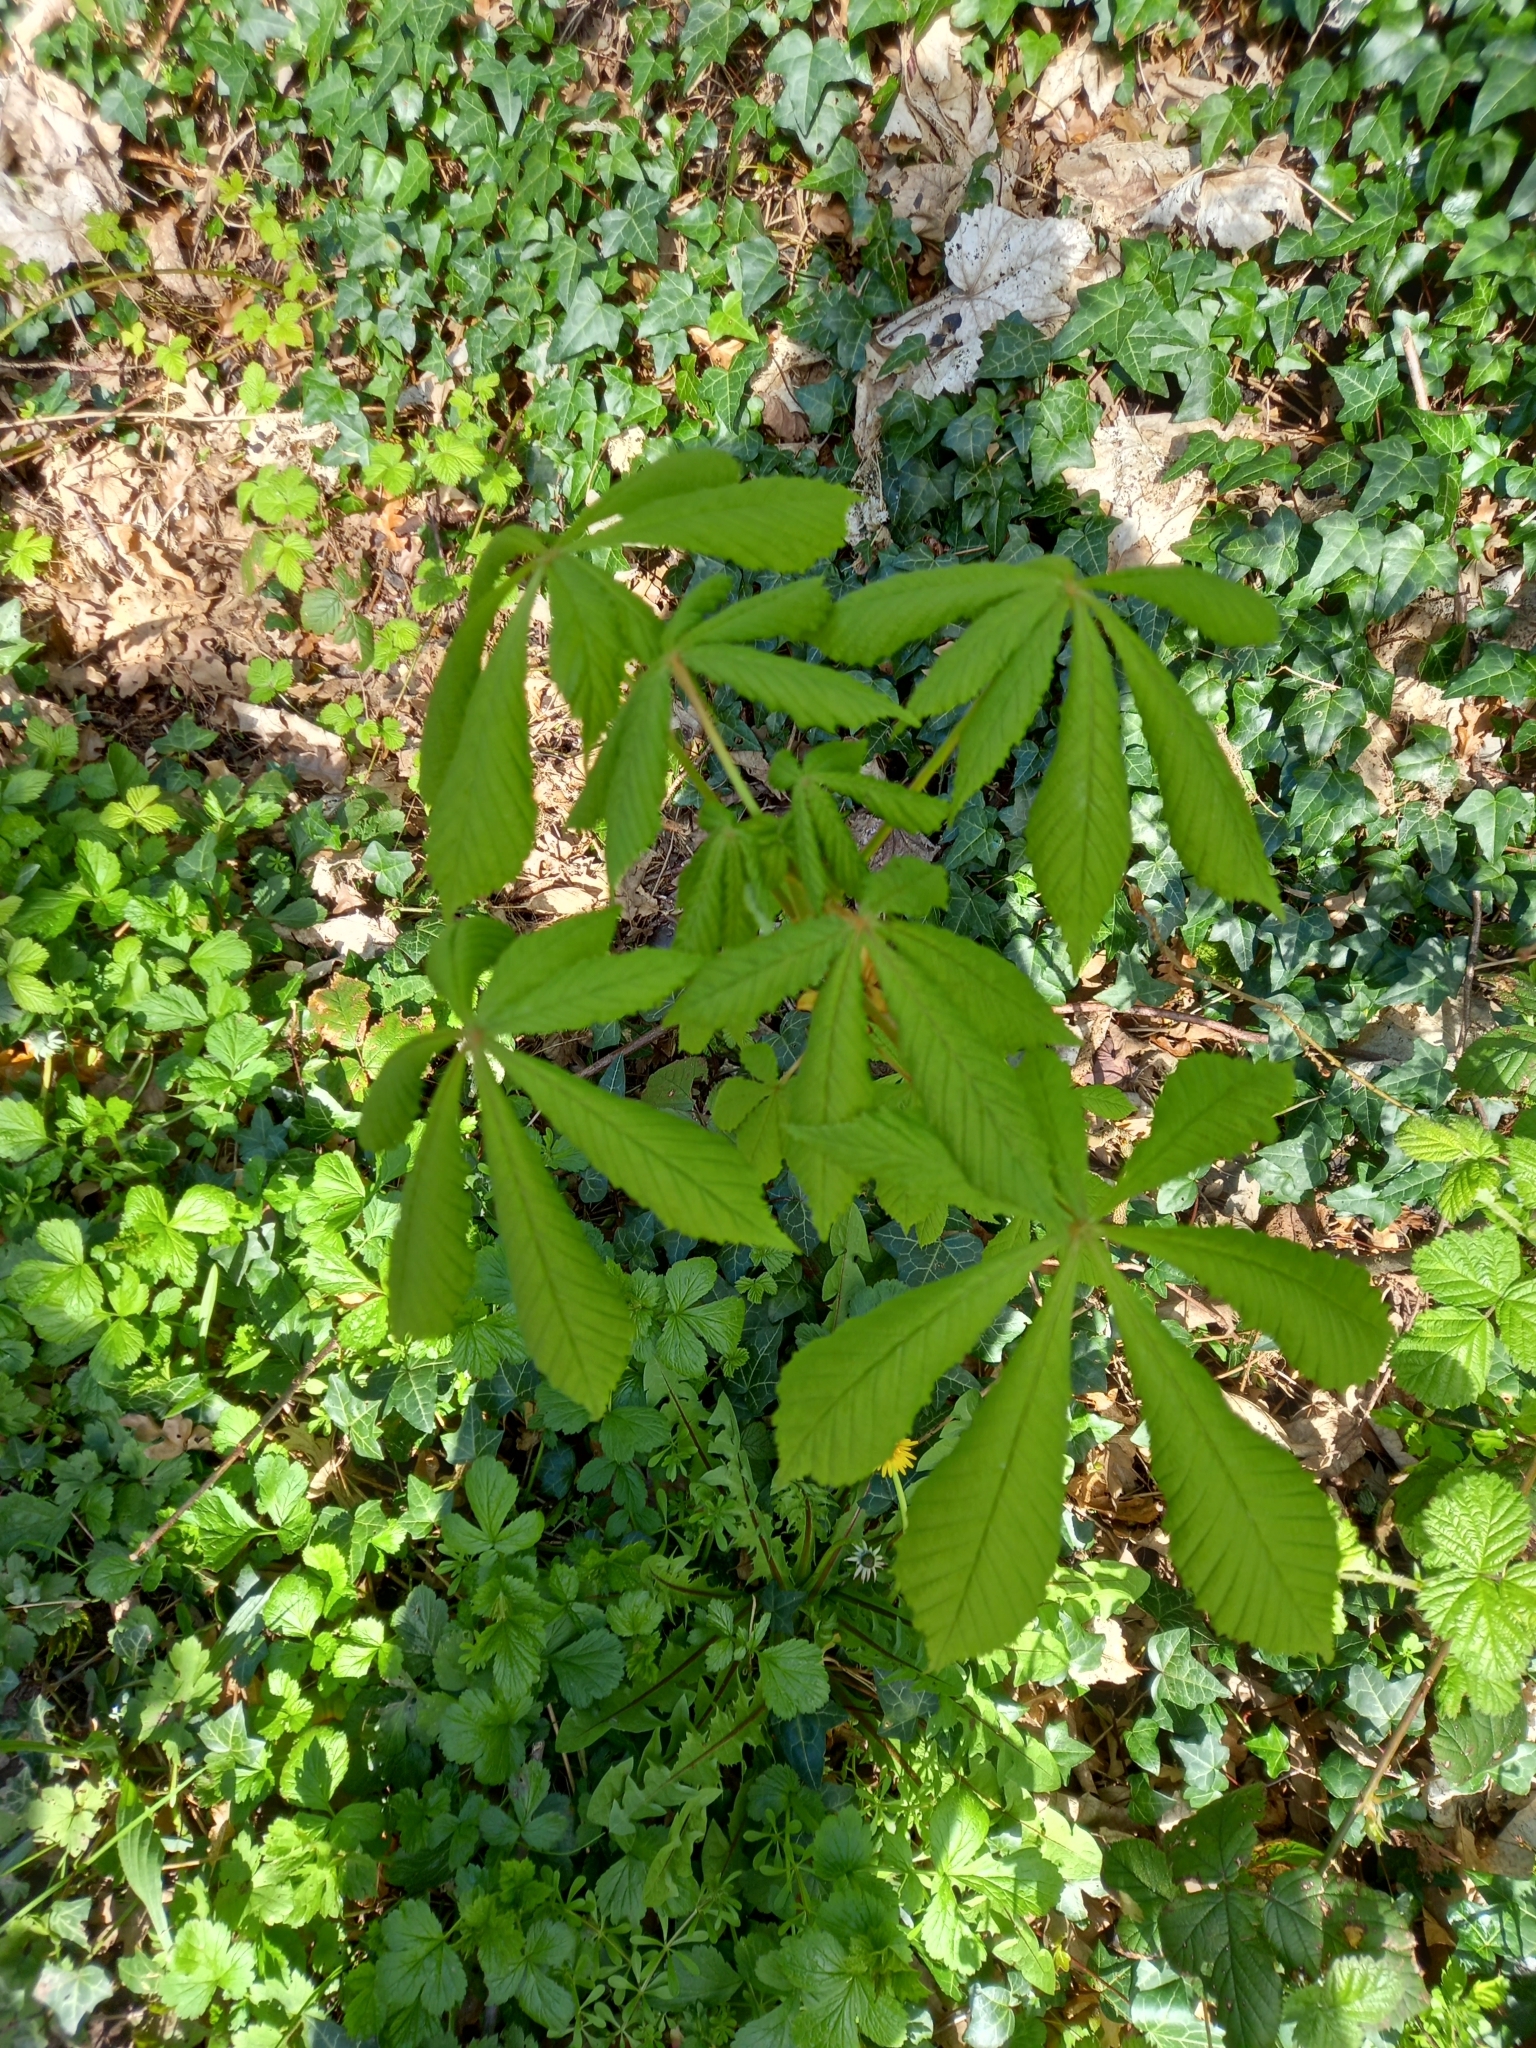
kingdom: Plantae
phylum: Tracheophyta
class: Magnoliopsida
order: Sapindales
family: Sapindaceae
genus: Aesculus
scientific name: Aesculus hippocastanum
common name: Horse-chestnut
